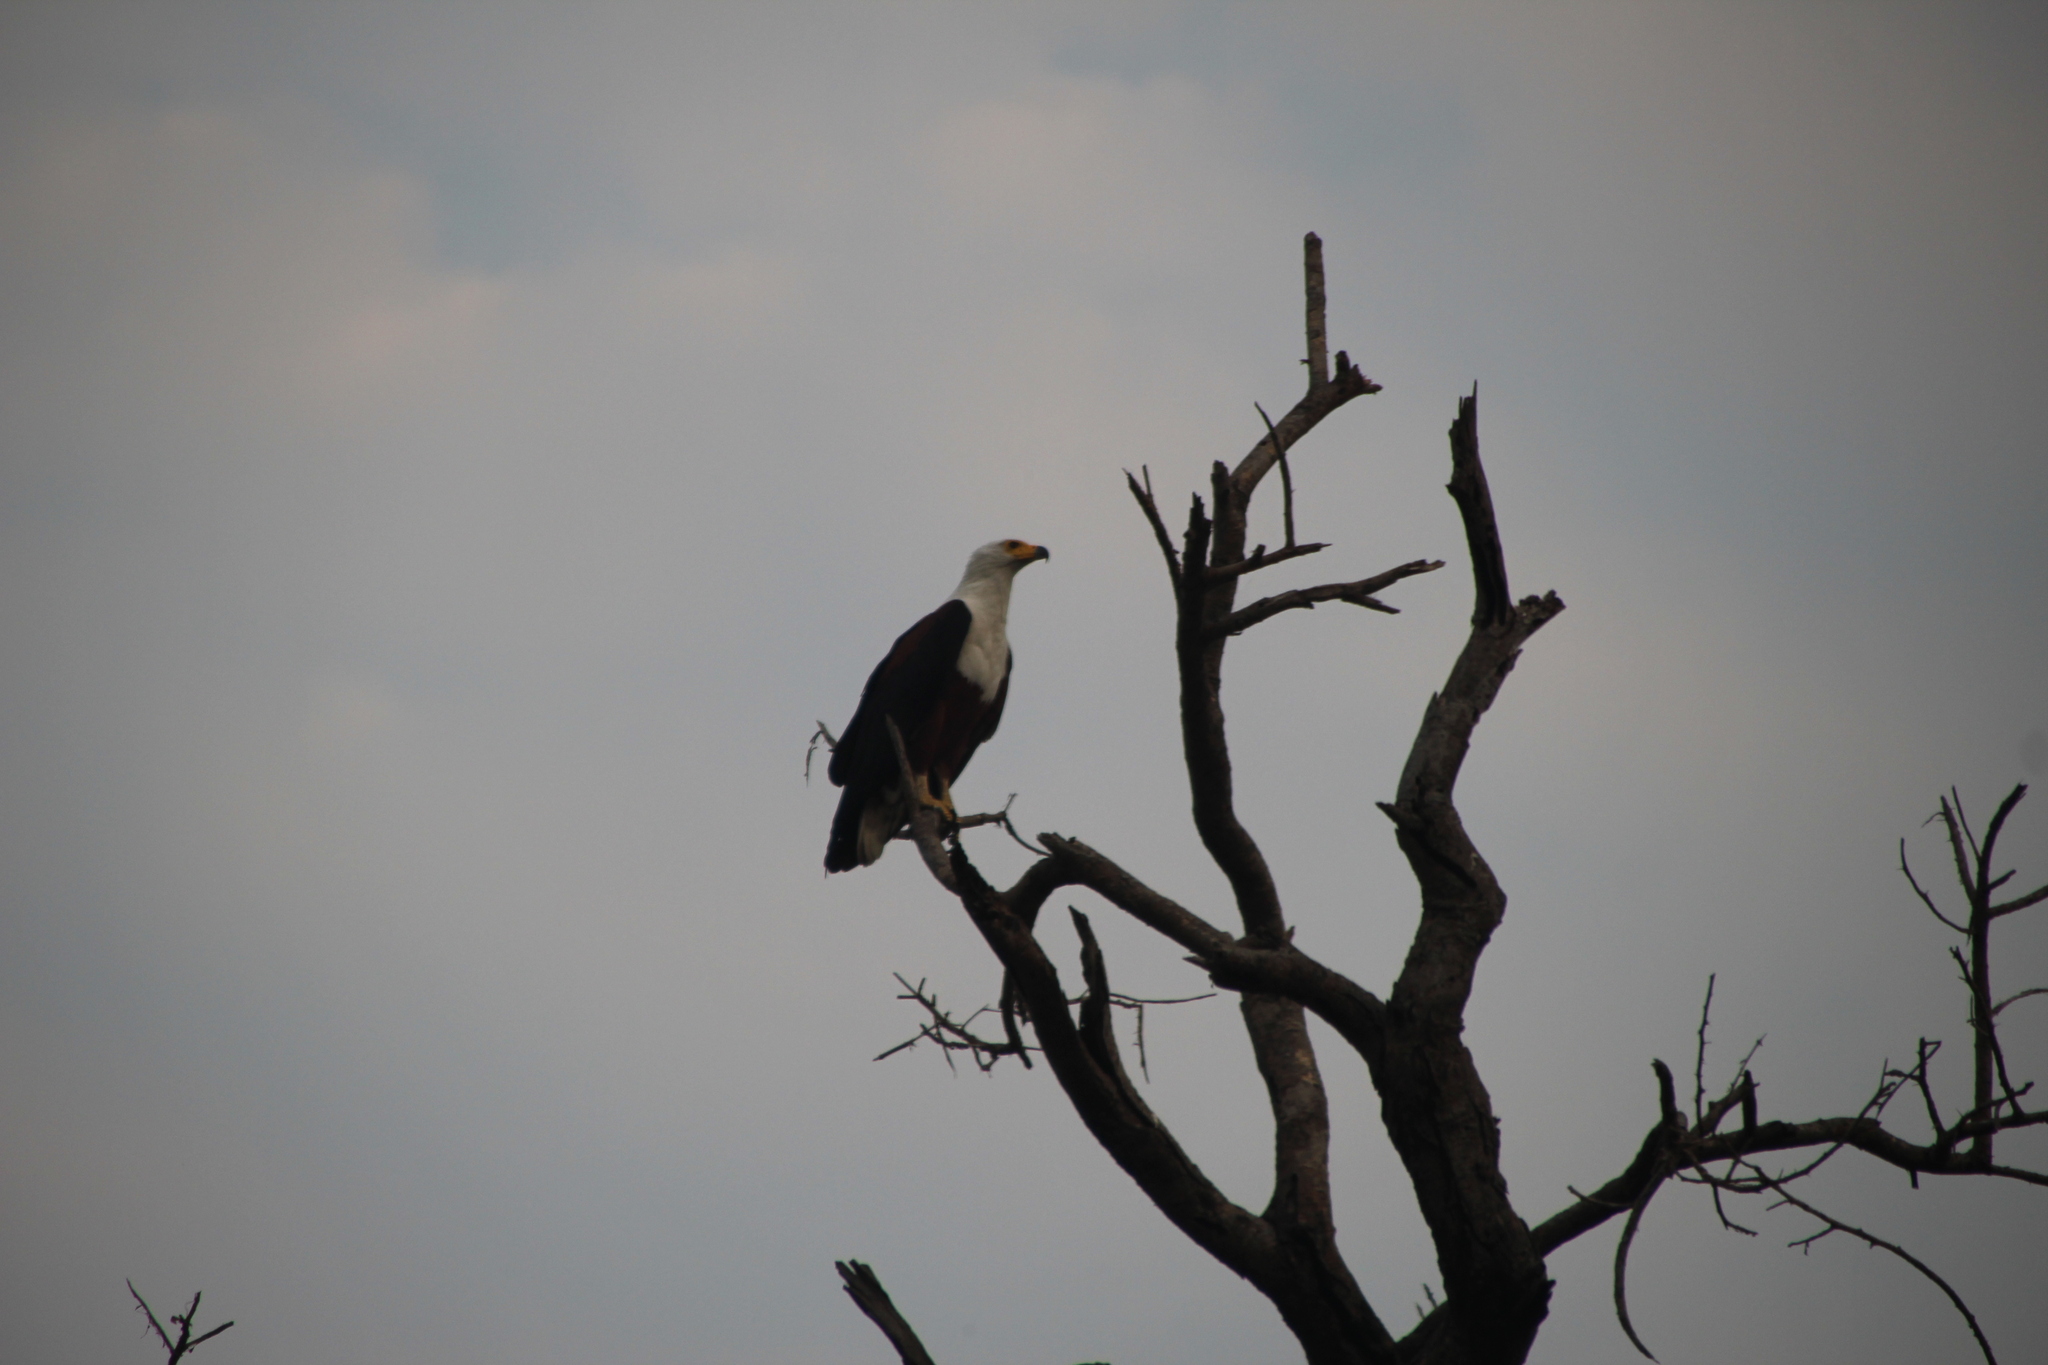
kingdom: Animalia
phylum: Chordata
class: Aves
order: Accipitriformes
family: Accipitridae
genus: Haliaeetus
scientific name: Haliaeetus vocifer
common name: African fish eagle
